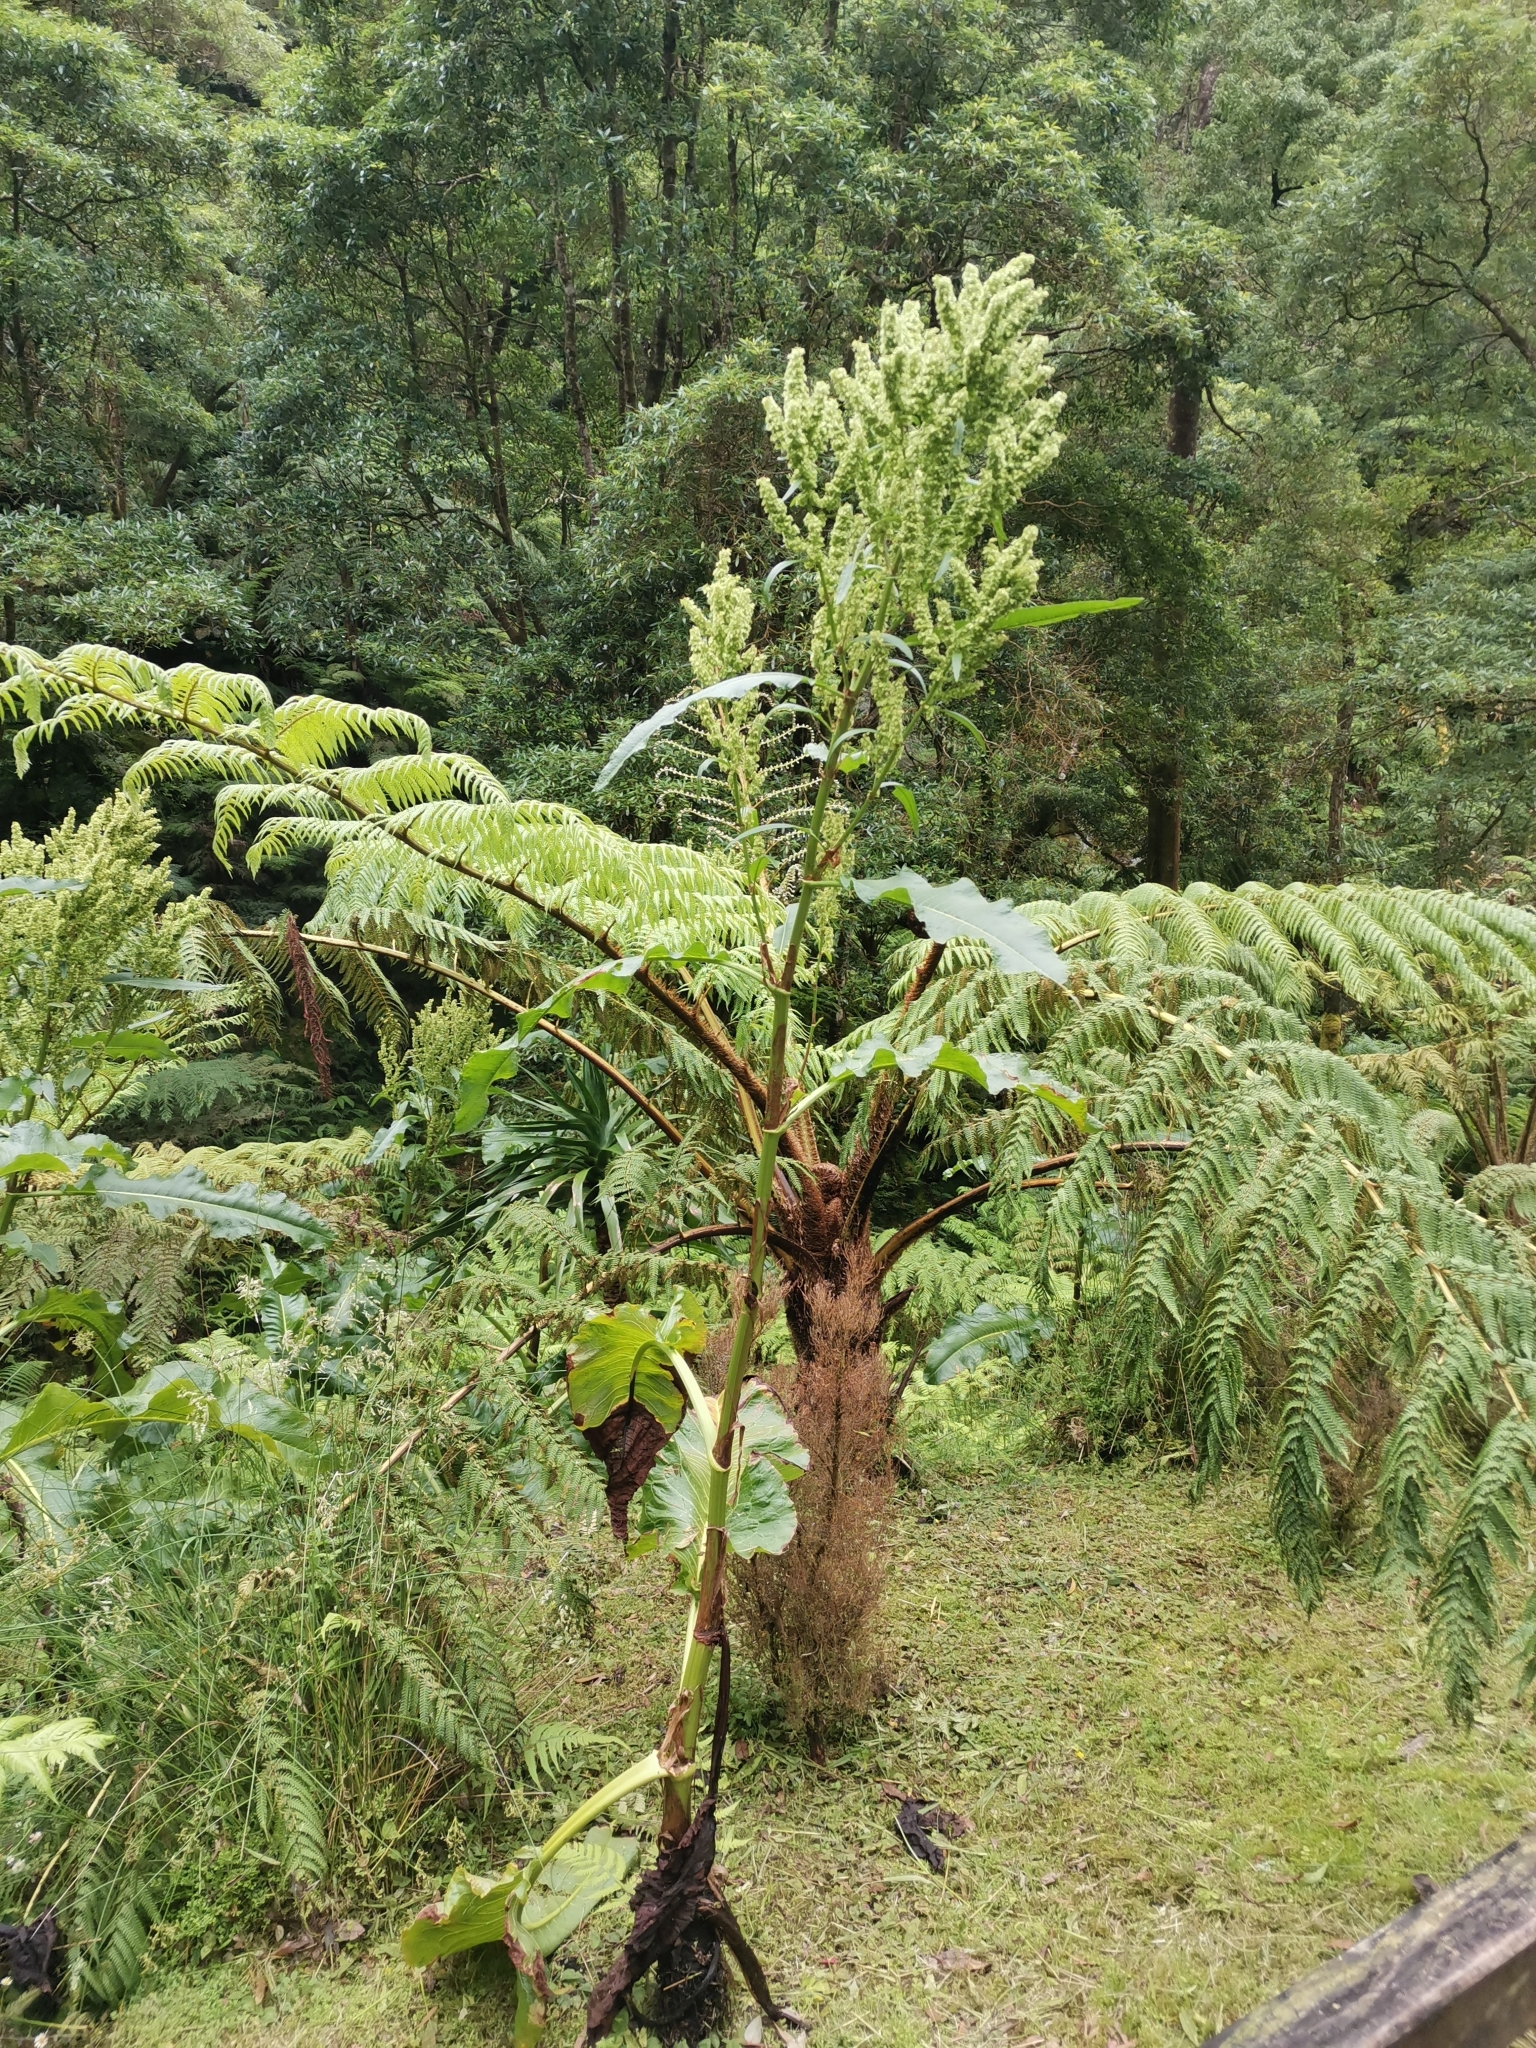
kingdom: Plantae
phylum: Tracheophyta
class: Magnoliopsida
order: Caryophyllales
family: Polygonaceae
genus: Rumex
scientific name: Rumex azoricus
